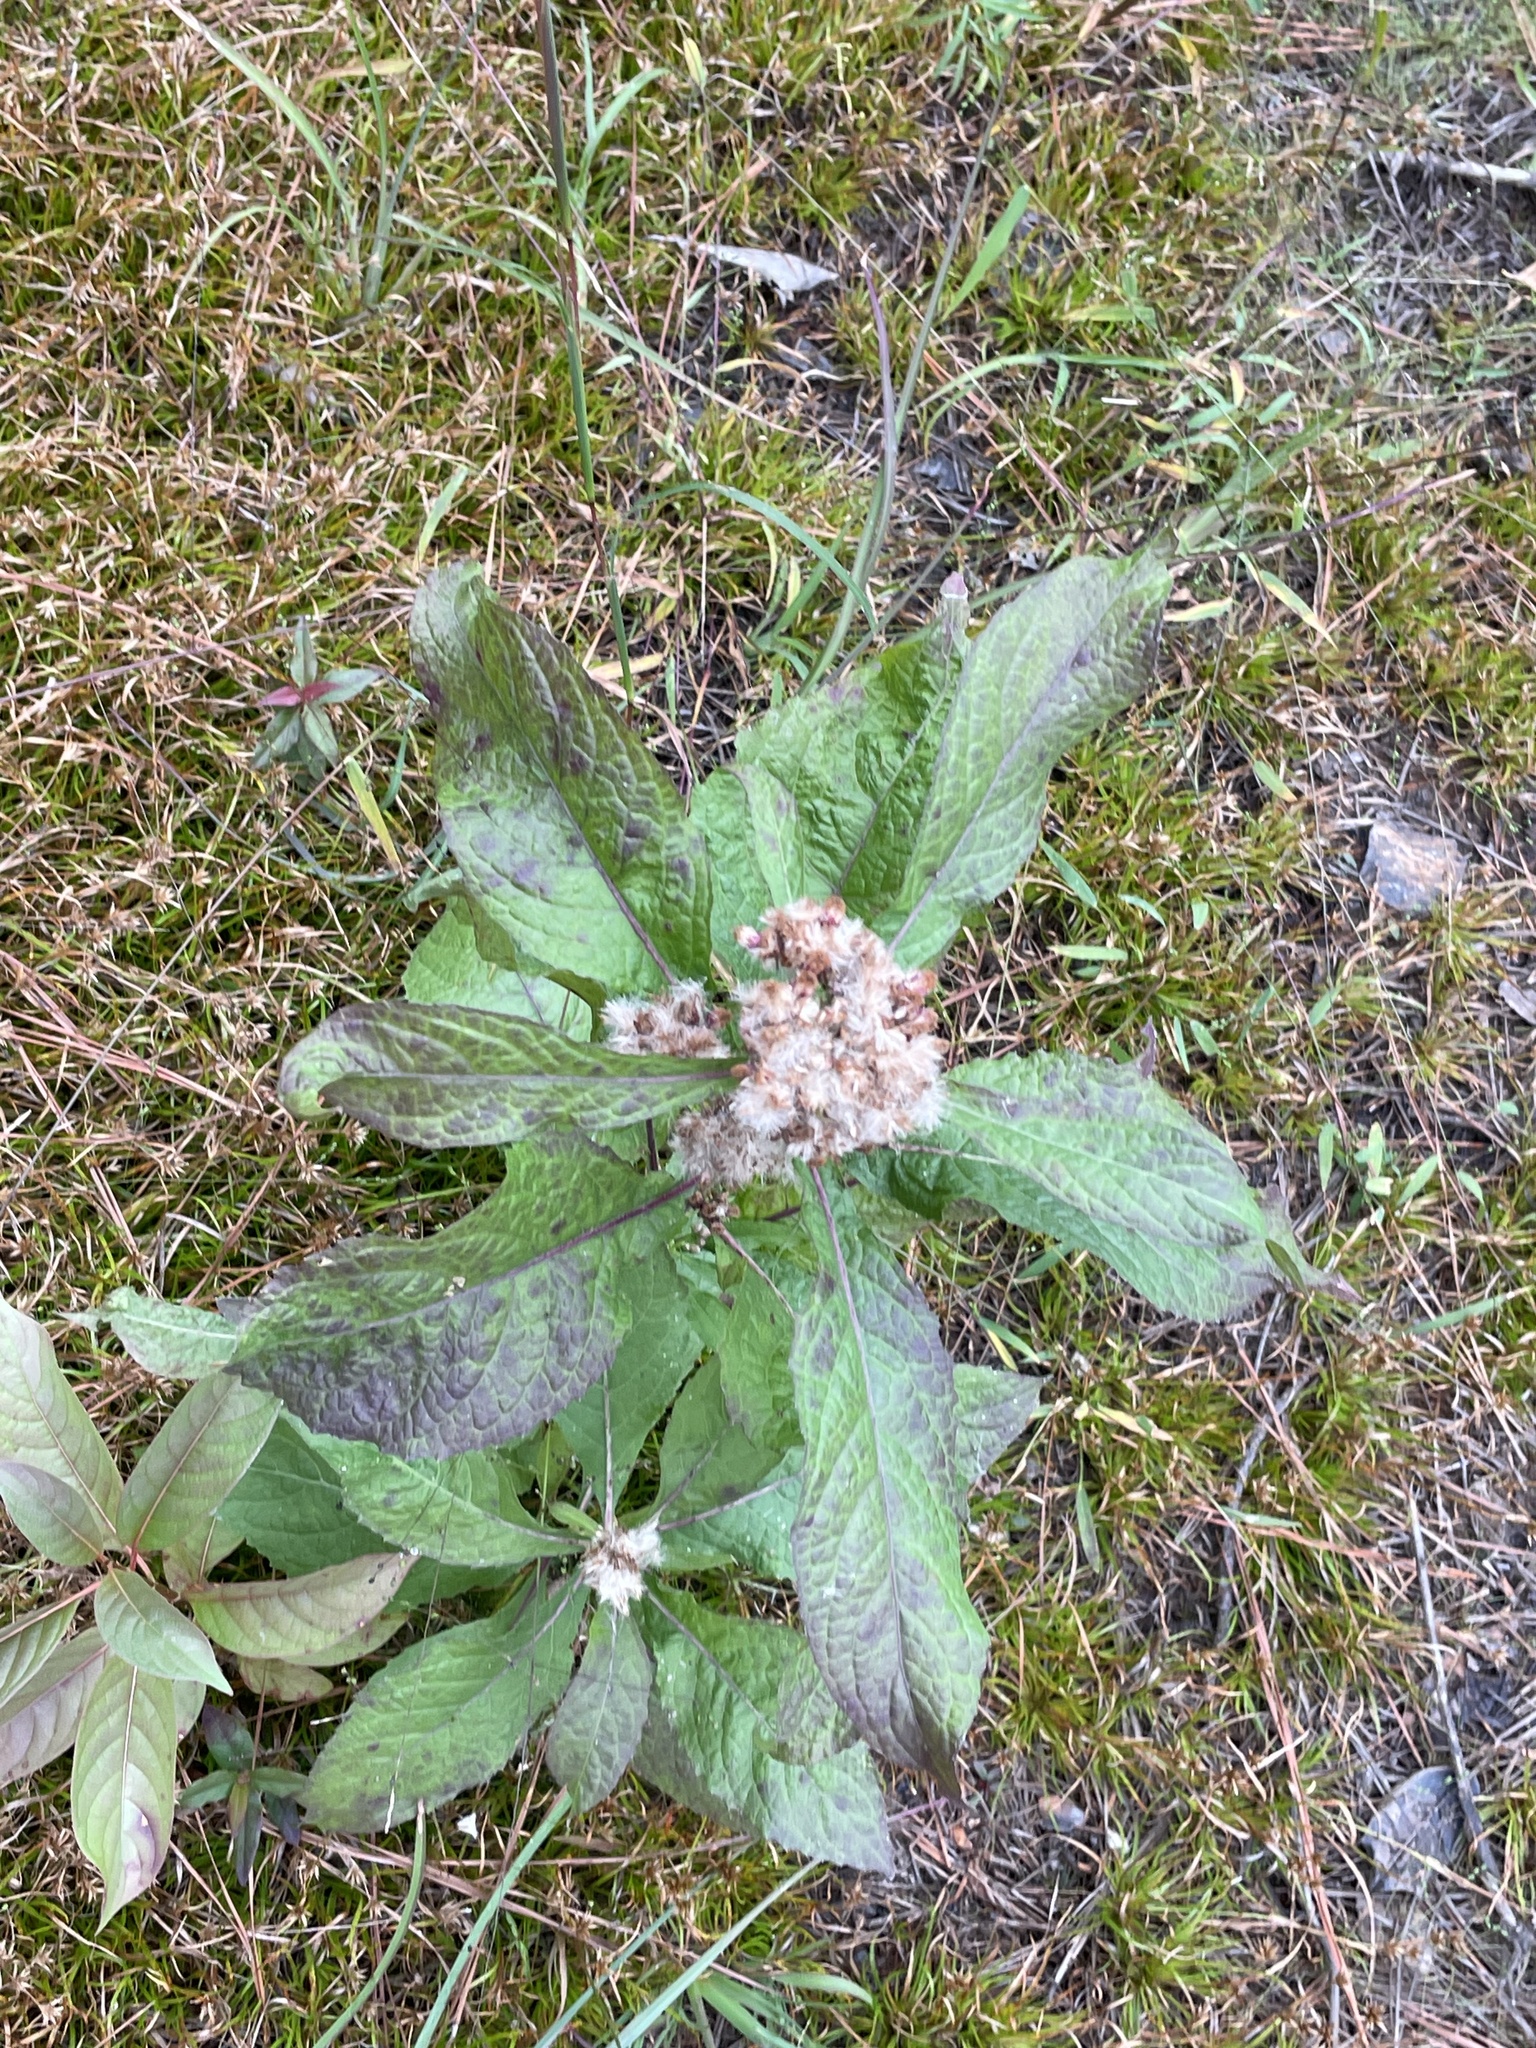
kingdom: Plantae
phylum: Tracheophyta
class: Magnoliopsida
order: Asterales
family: Asteraceae
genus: Pluchea
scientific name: Pluchea camphorata
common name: Camphor pluchea
